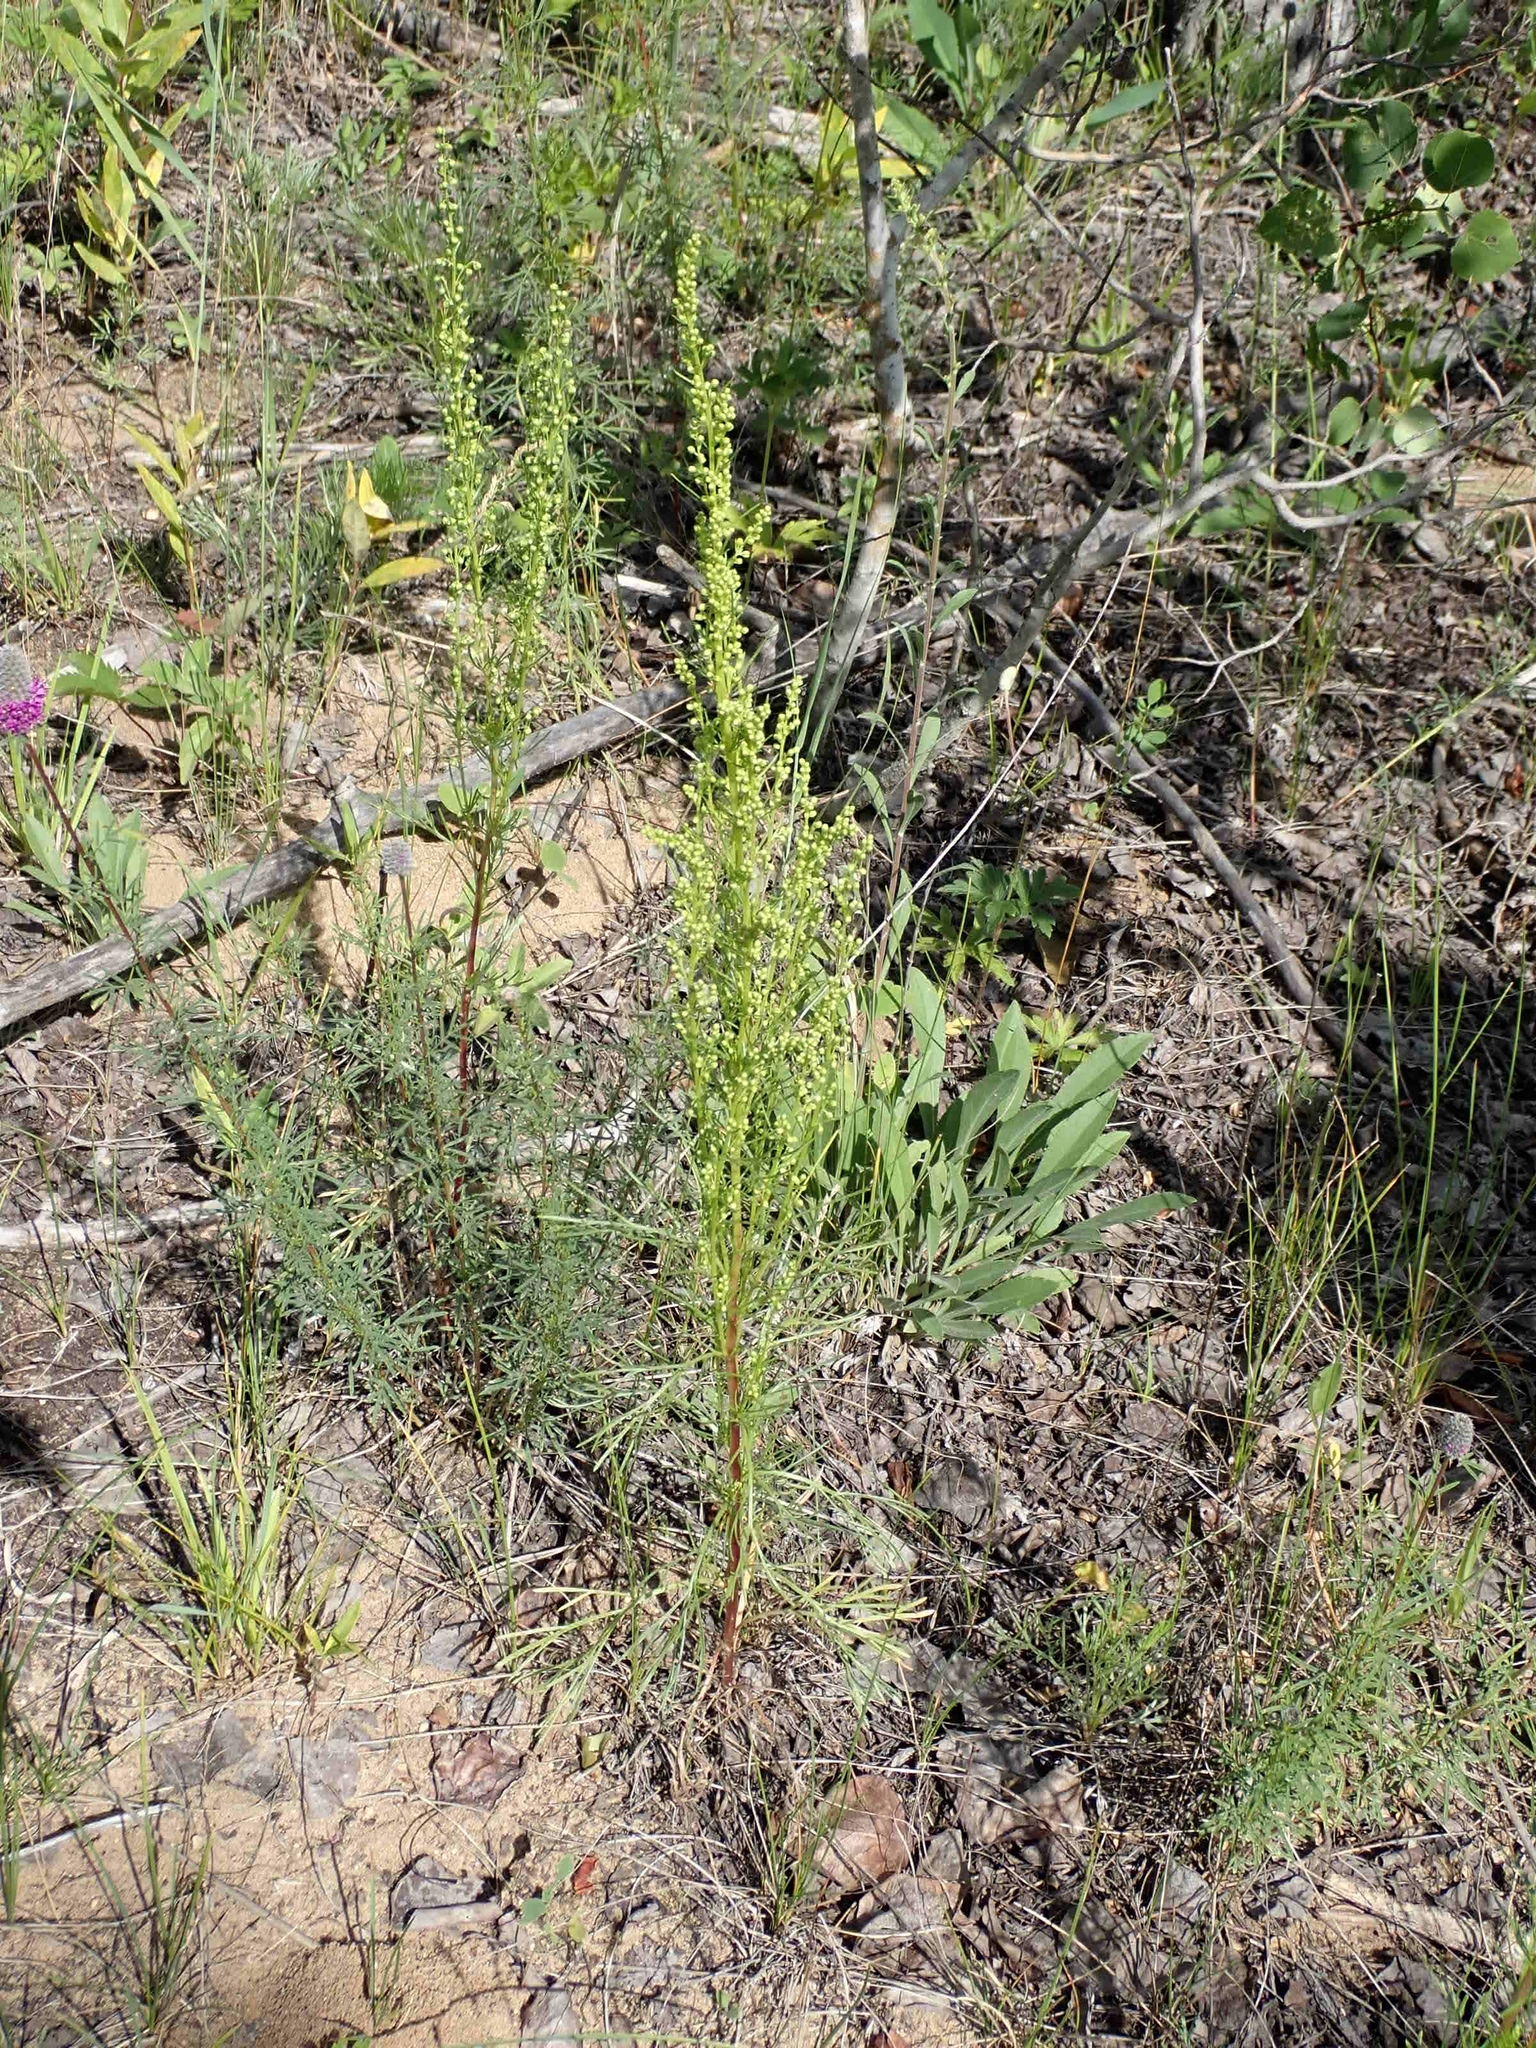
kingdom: Plantae
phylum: Tracheophyta
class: Magnoliopsida
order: Asterales
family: Asteraceae
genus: Artemisia
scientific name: Artemisia campestris
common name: Field wormwood
